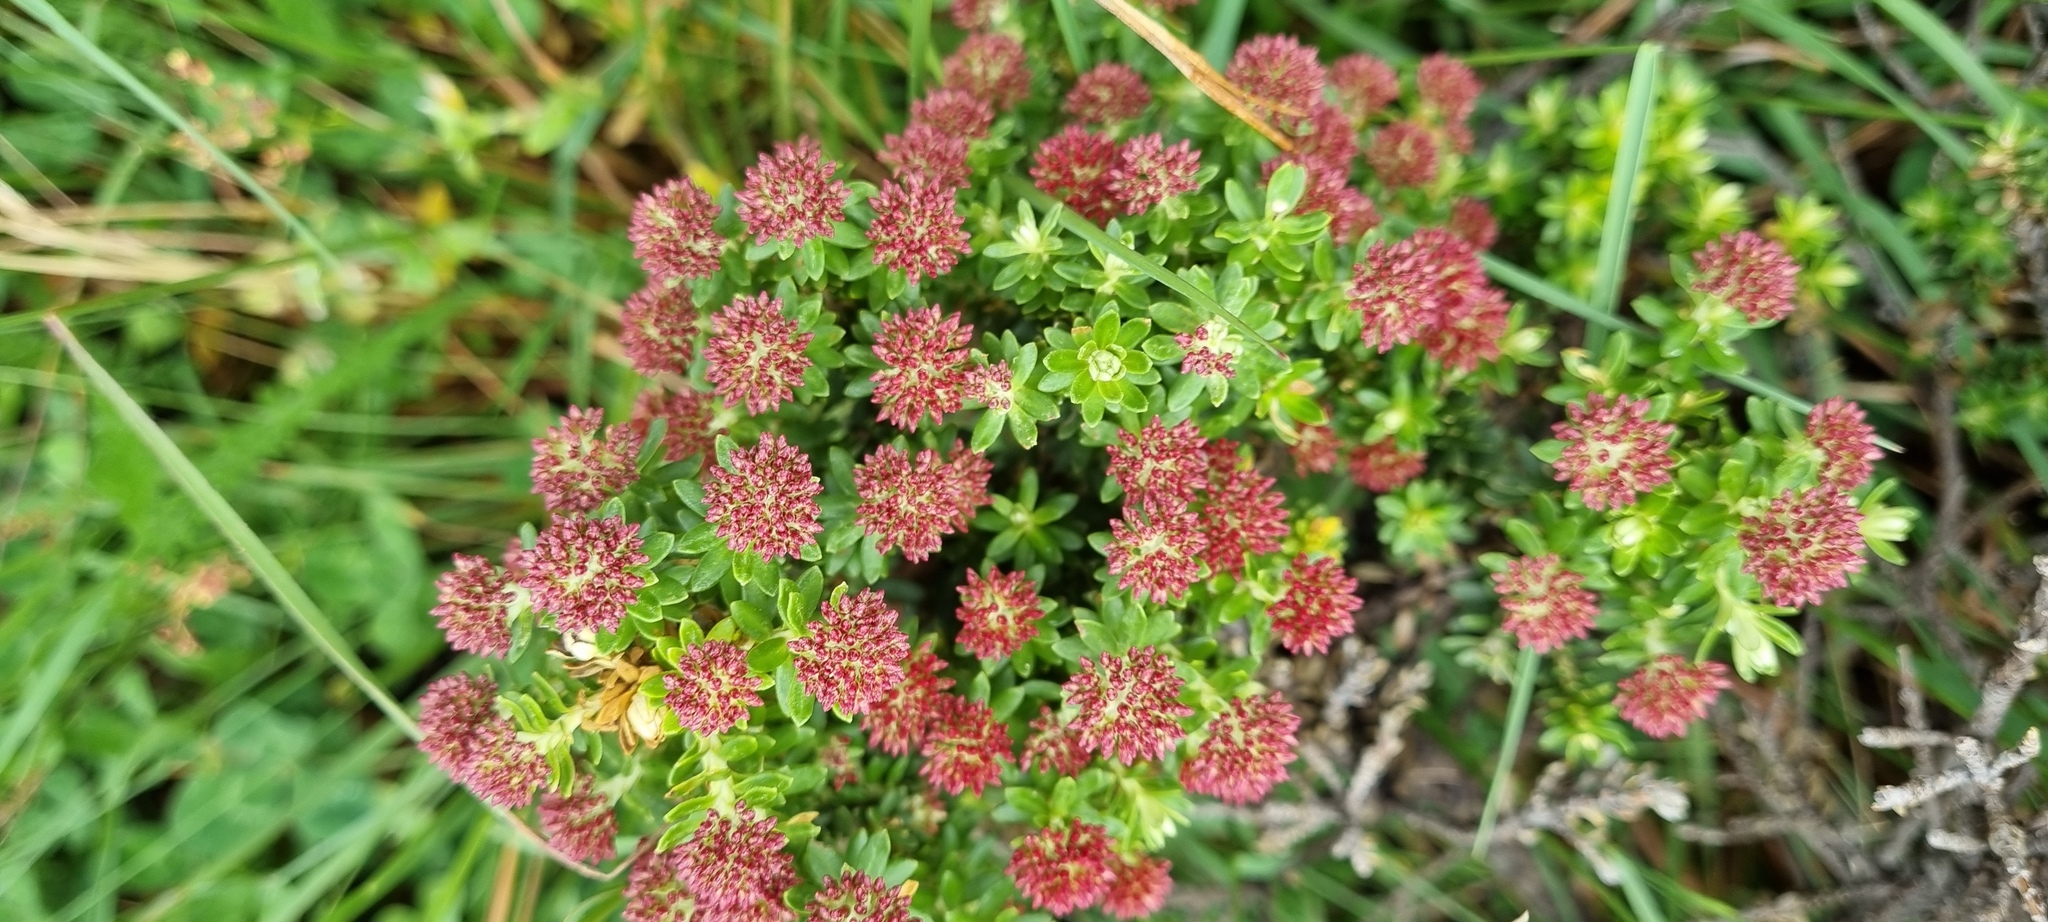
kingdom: Plantae
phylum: Tracheophyta
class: Magnoliopsida
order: Asterales
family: Asteraceae
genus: Ozothamnus
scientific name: Ozothamnus alpinus
